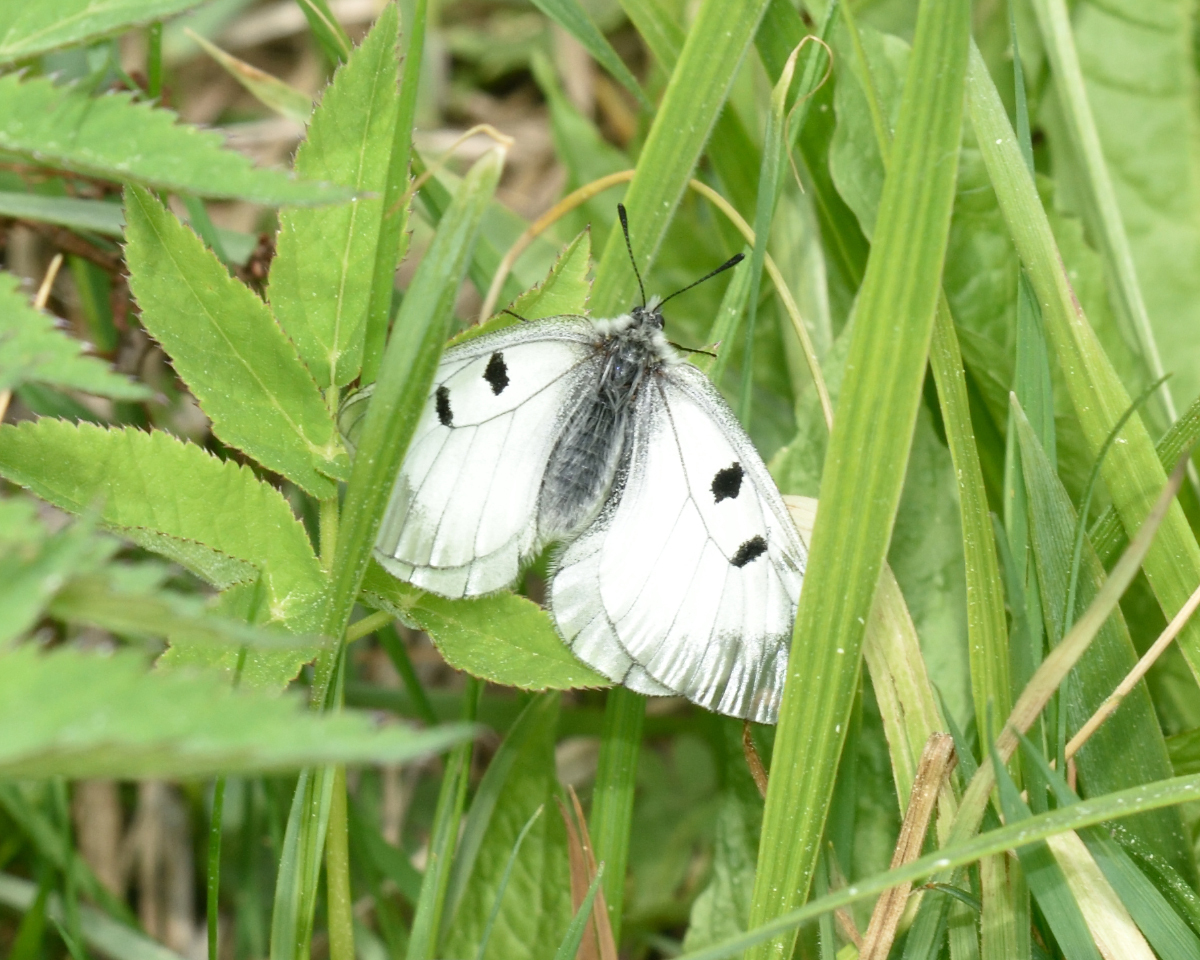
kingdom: Animalia
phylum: Arthropoda
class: Insecta
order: Lepidoptera
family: Papilionidae
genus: Parnassius
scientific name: Parnassius mnemosyne
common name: Clouded apollo
